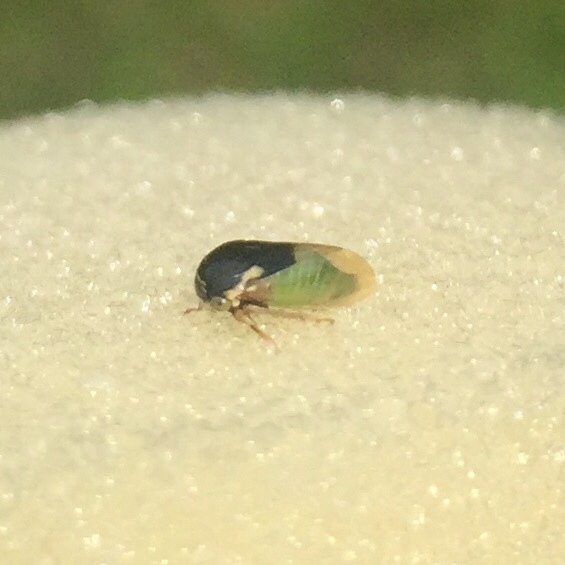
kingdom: Animalia
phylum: Arthropoda
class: Insecta
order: Hemiptera
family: Membracidae
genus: Micrutalis
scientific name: Micrutalis calva
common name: Honeylocust treehopper
